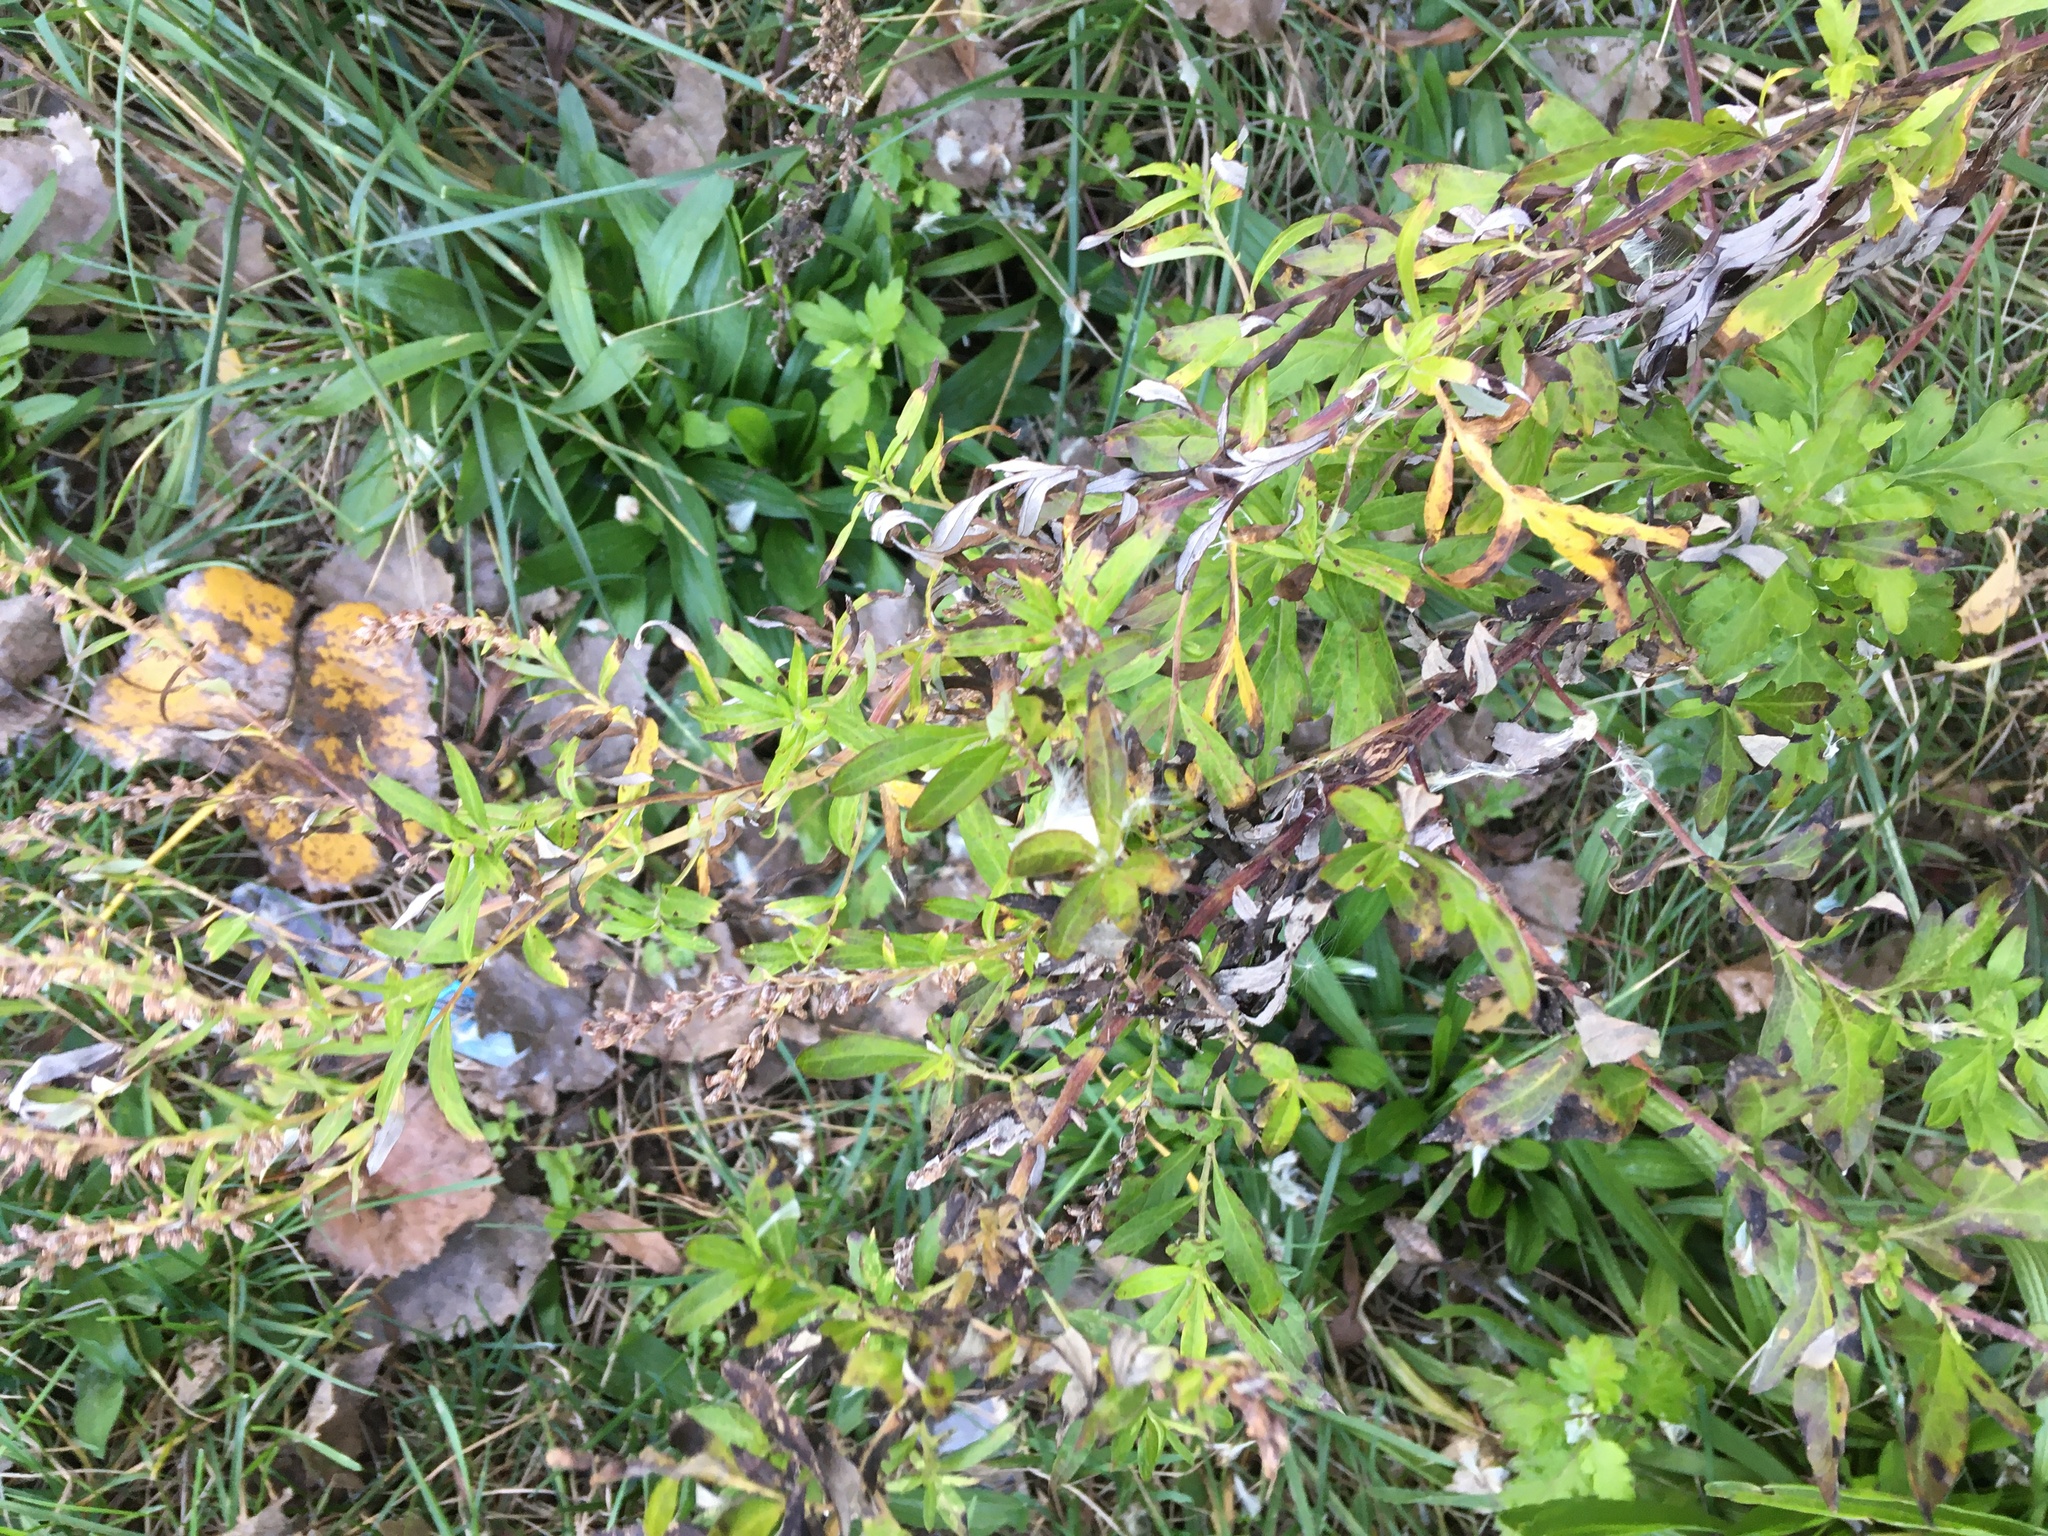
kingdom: Plantae
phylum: Tracheophyta
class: Magnoliopsida
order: Asterales
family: Asteraceae
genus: Artemisia
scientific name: Artemisia vulgaris
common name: Mugwort
